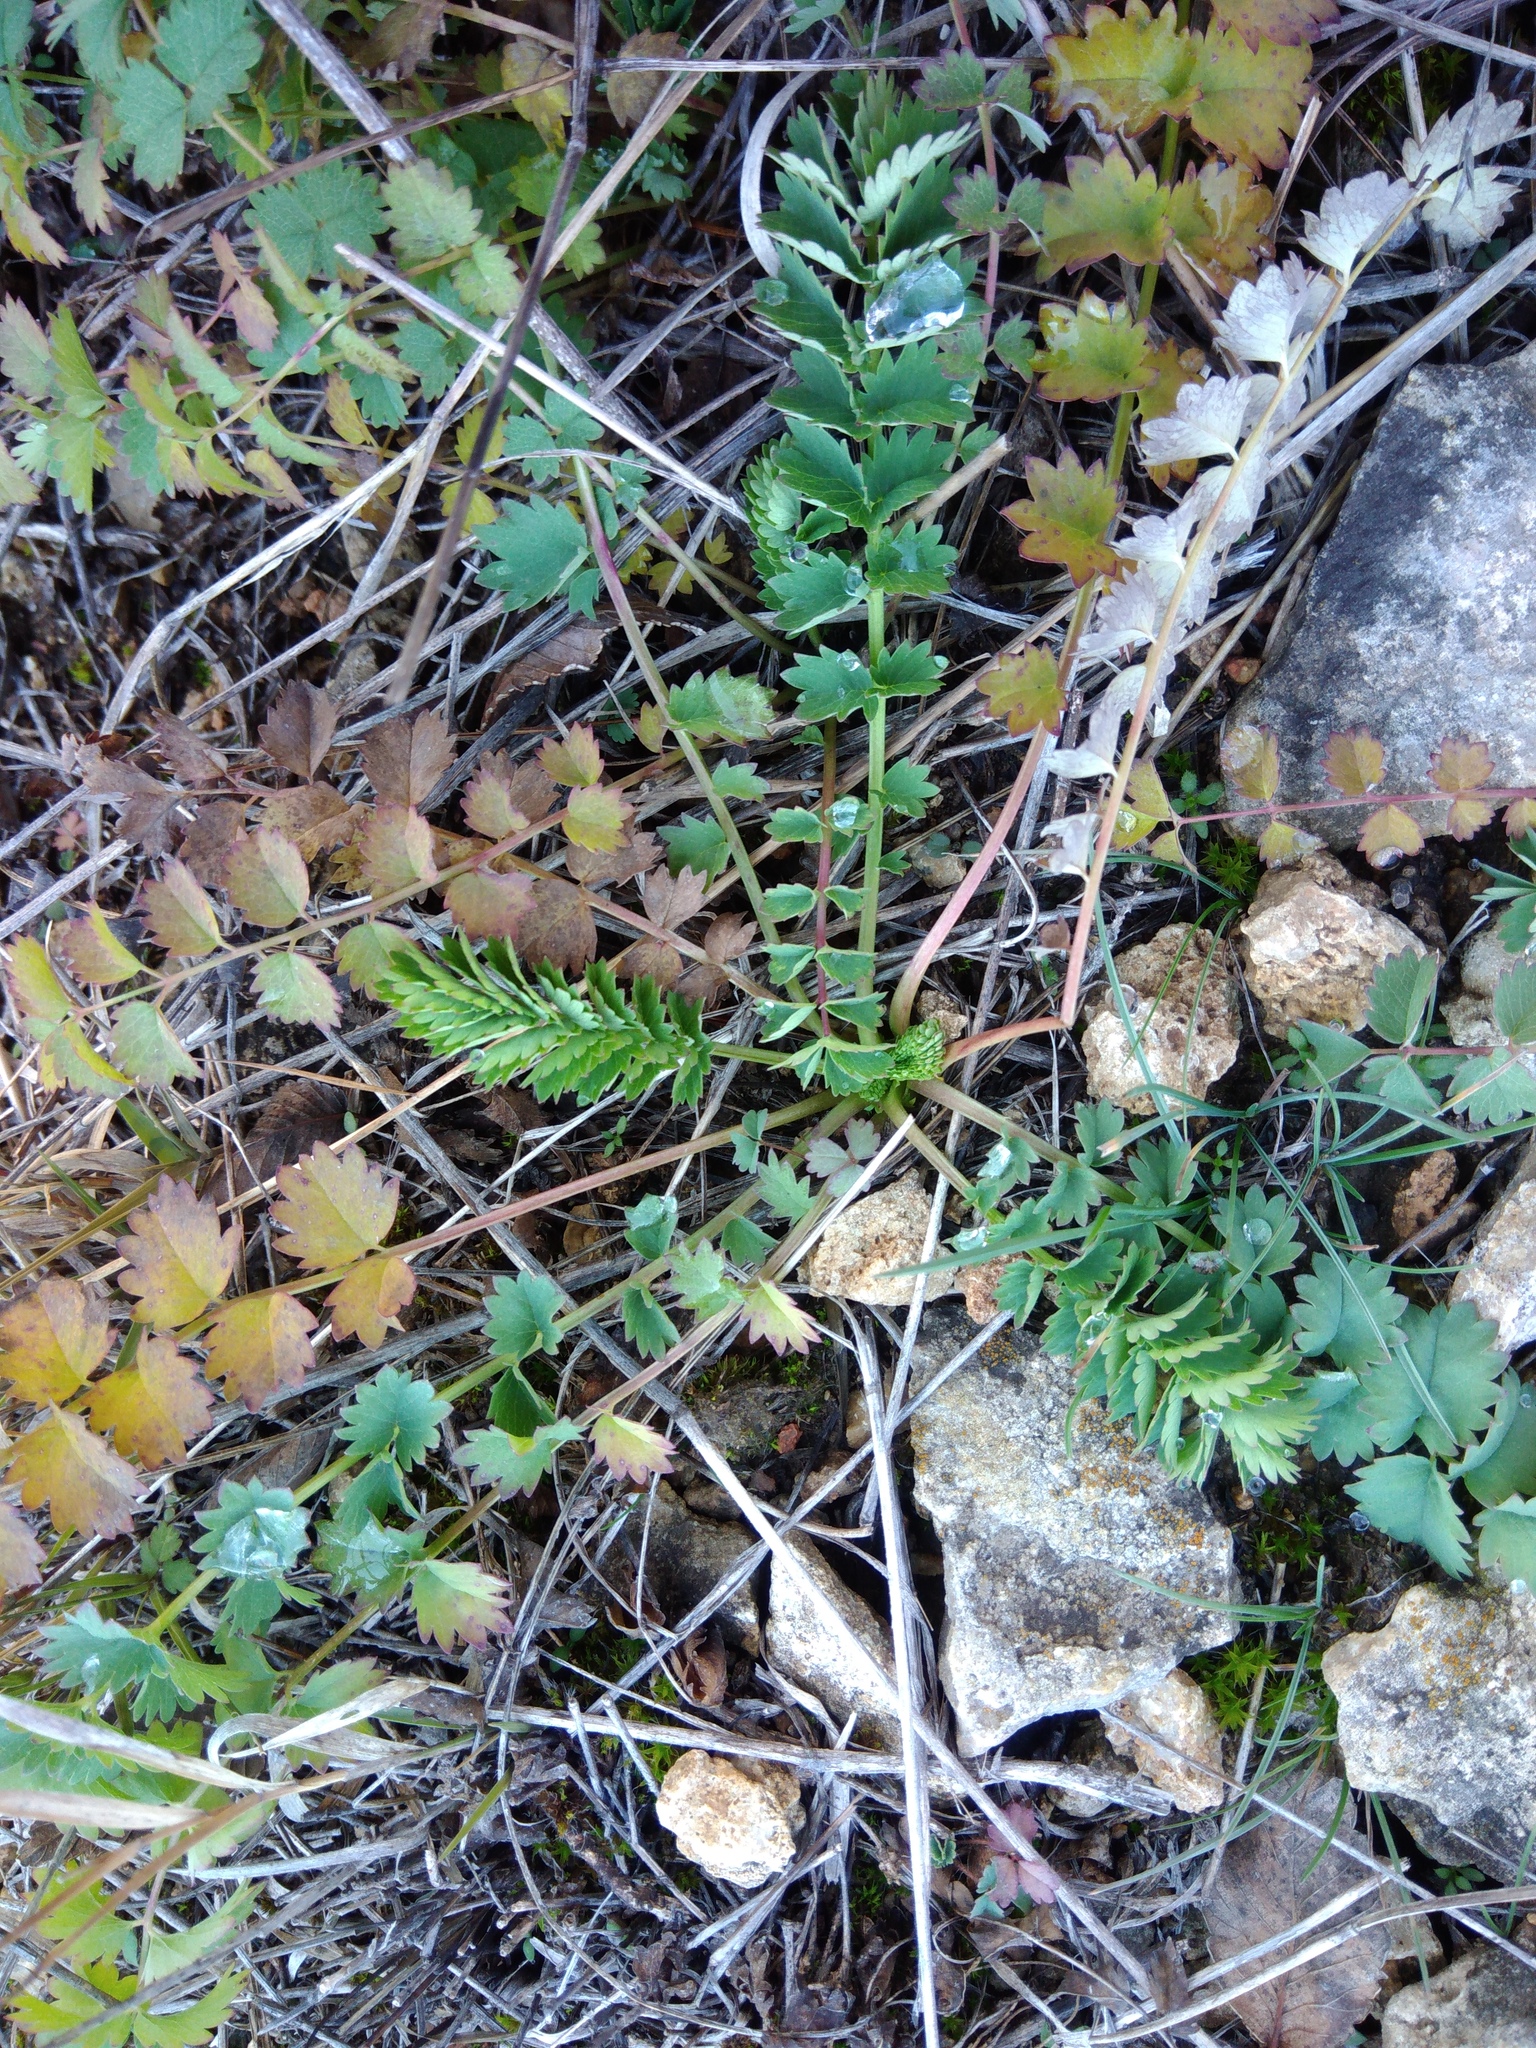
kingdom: Plantae
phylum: Tracheophyta
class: Magnoliopsida
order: Rosales
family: Rosaceae
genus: Poterium
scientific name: Poterium sanguisorba
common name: Salad burnet
